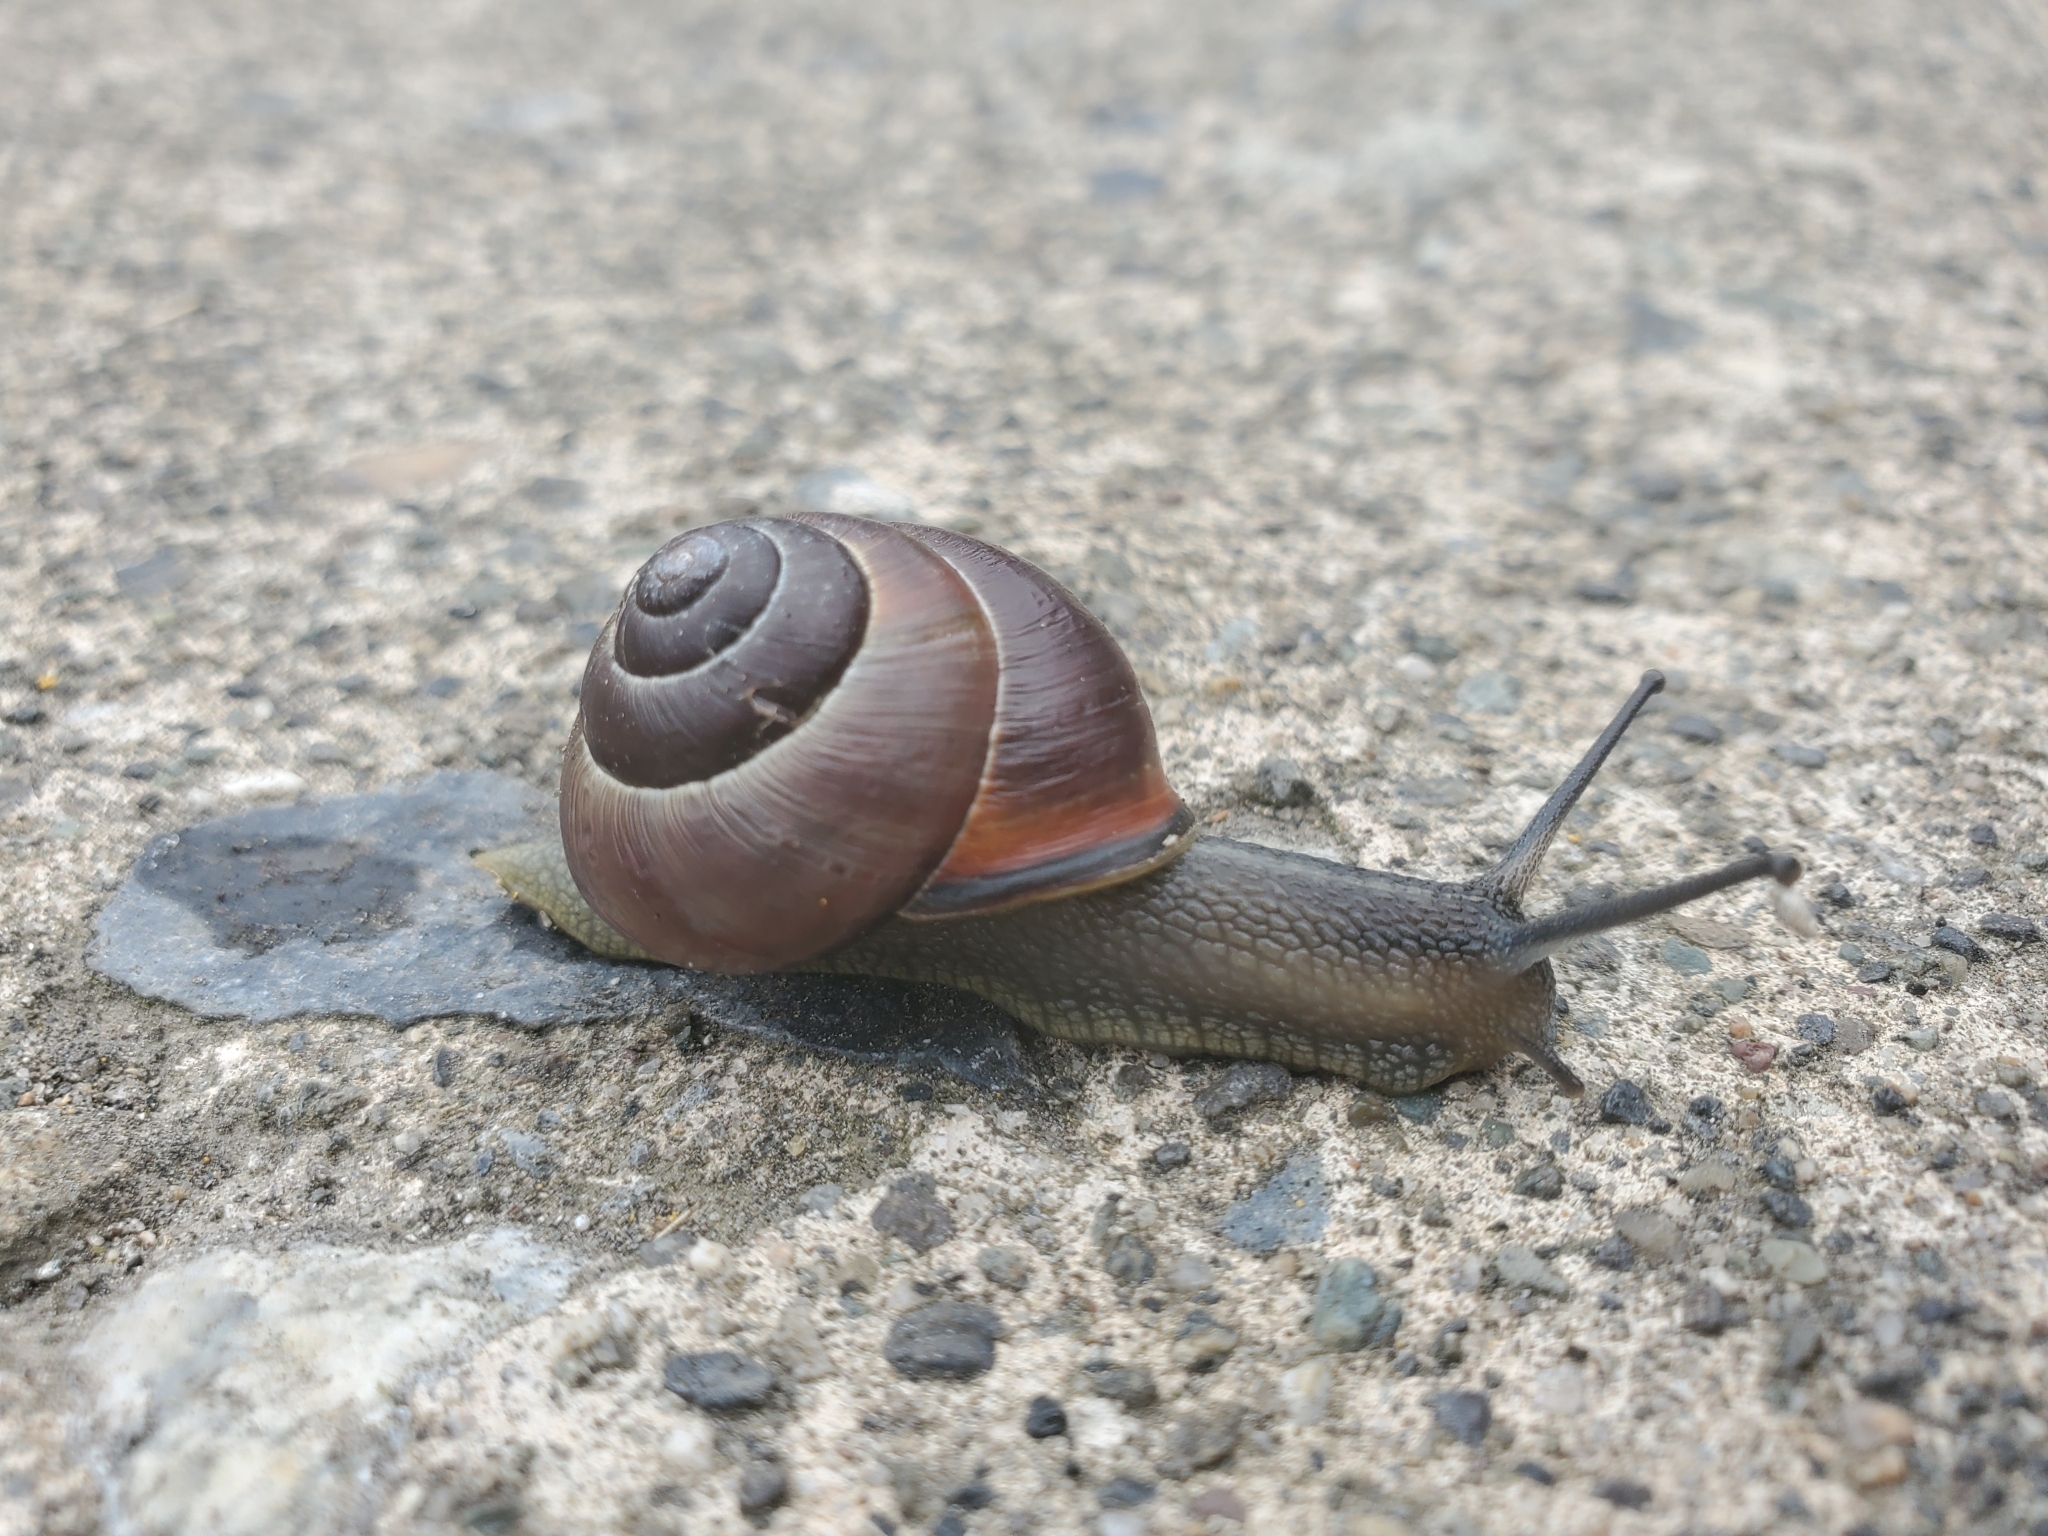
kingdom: Animalia
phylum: Mollusca
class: Gastropoda
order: Stylommatophora
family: Helicidae
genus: Cepaea
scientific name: Cepaea nemoralis
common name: Grovesnail
